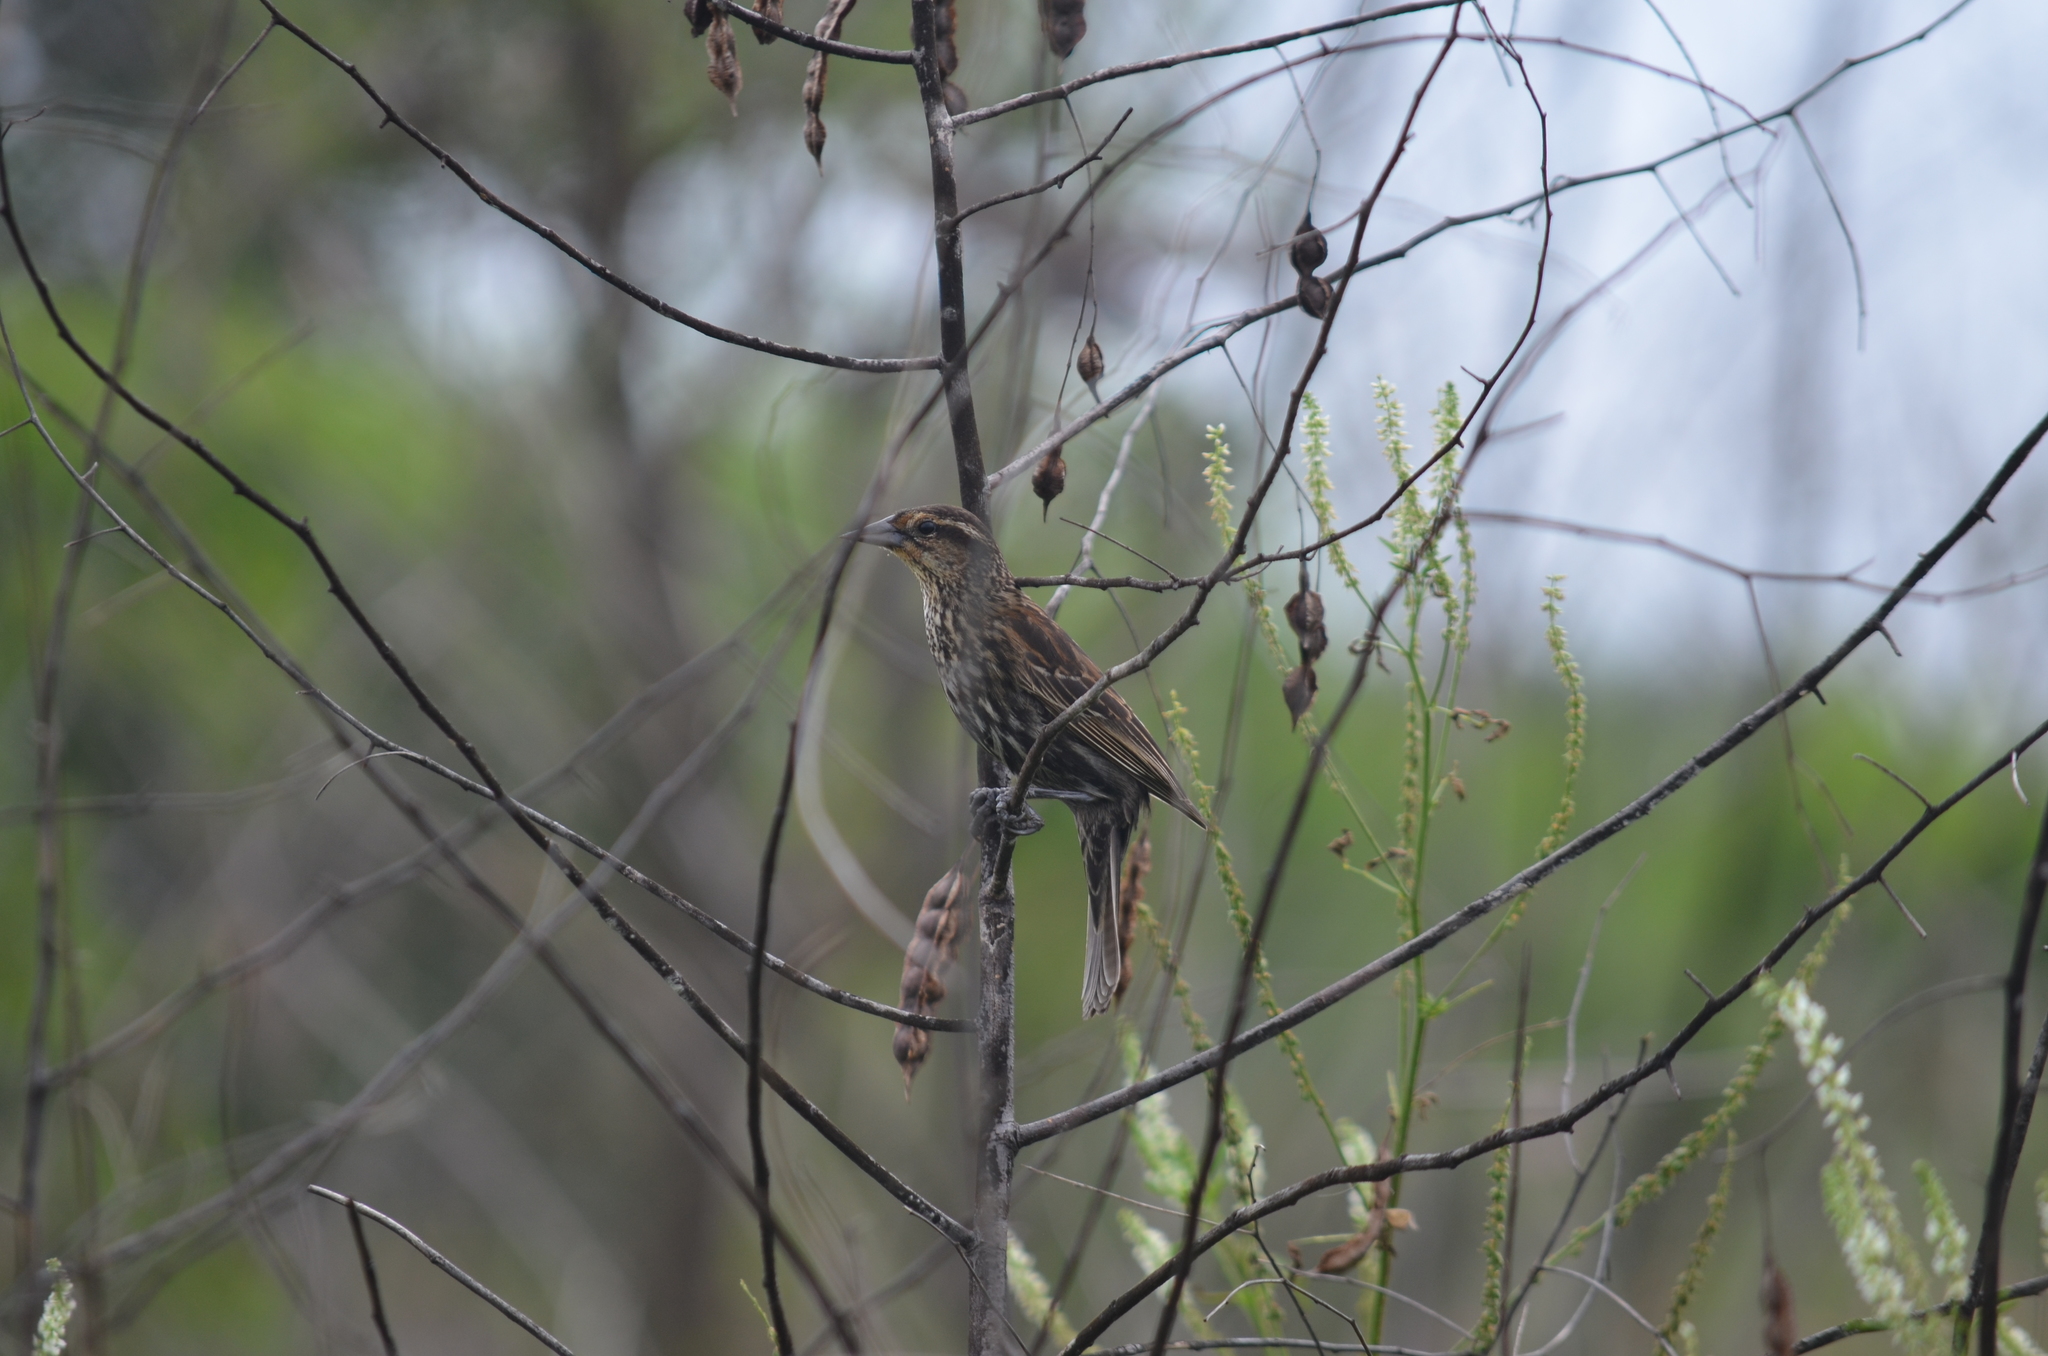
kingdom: Animalia
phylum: Chordata
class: Aves
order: Passeriformes
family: Icteridae
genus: Agelaius
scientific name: Agelaius phoeniceus
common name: Red-winged blackbird
